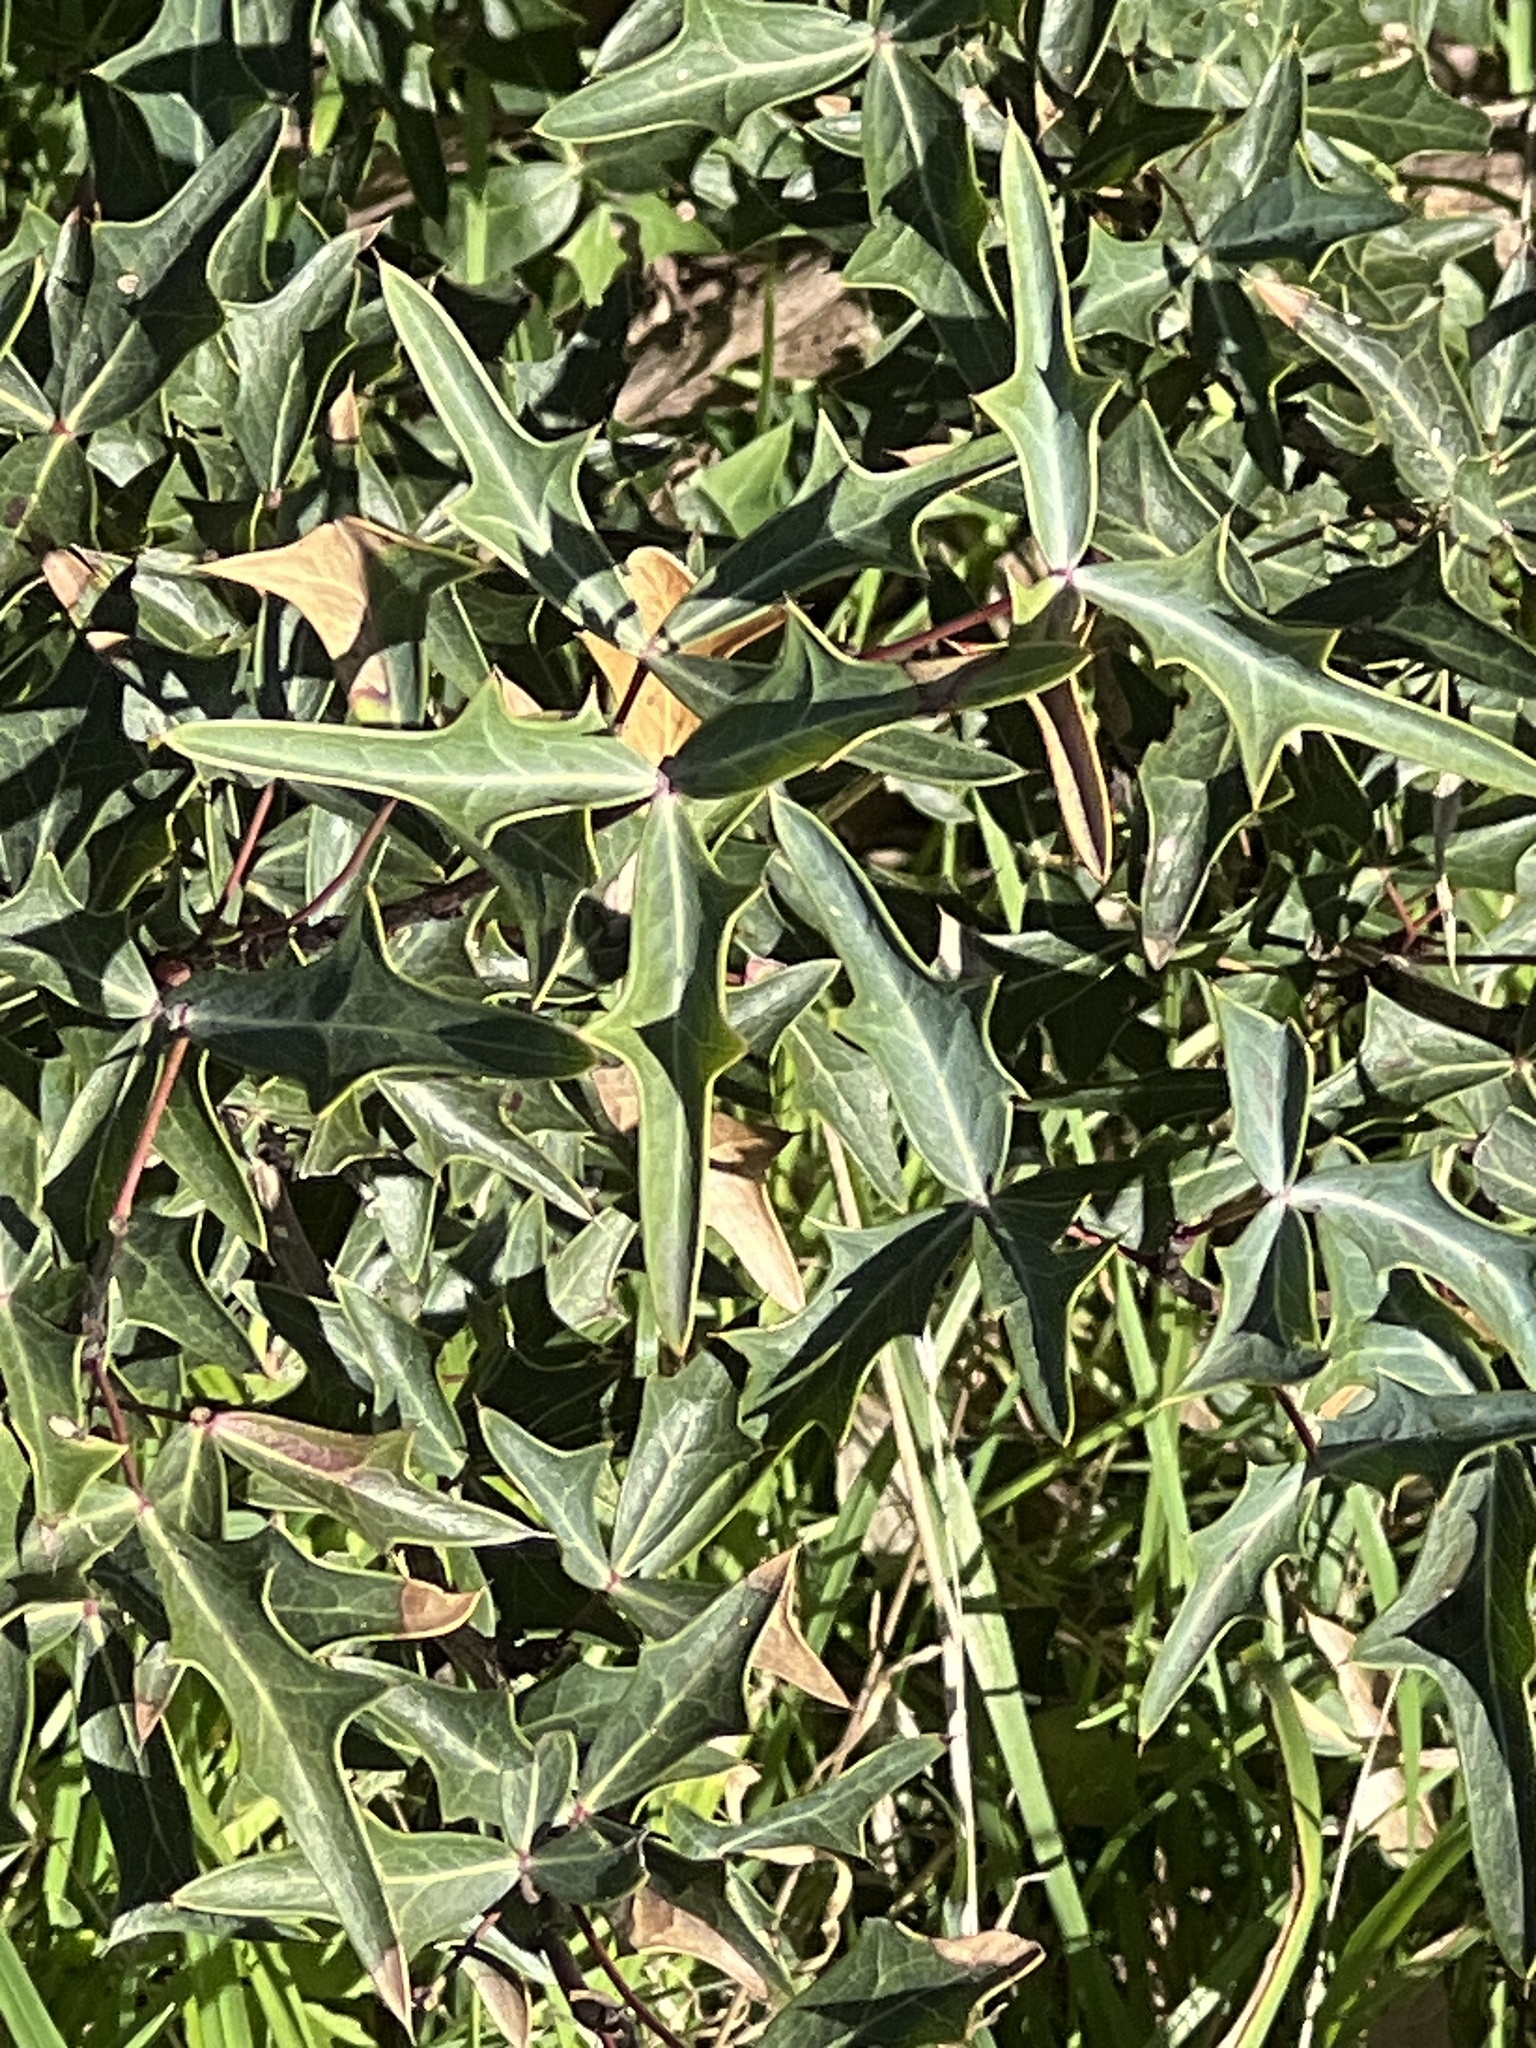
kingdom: Plantae
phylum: Tracheophyta
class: Magnoliopsida
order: Ranunculales
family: Berberidaceae
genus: Alloberberis
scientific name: Alloberberis trifoliolata
